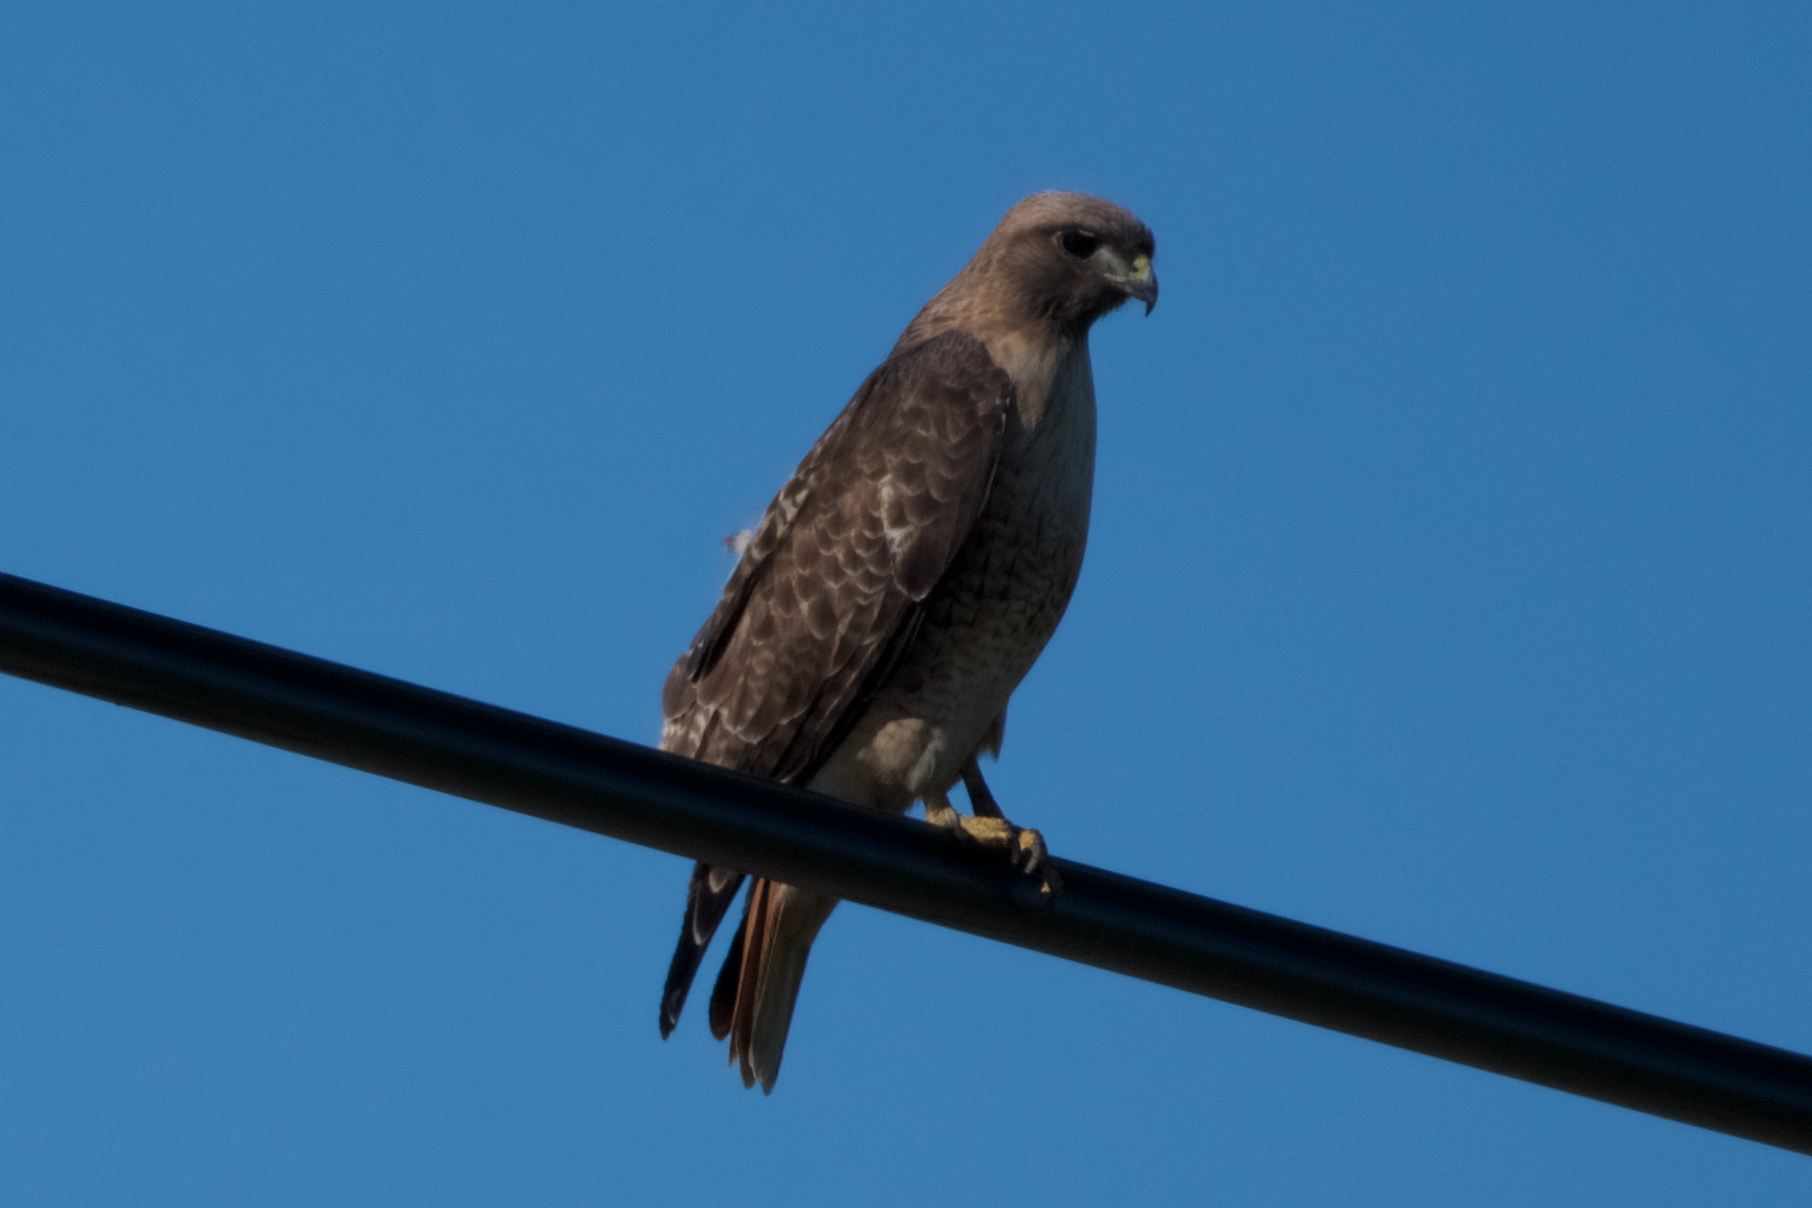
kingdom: Animalia
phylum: Chordata
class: Aves
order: Accipitriformes
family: Accipitridae
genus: Buteo
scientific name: Buteo jamaicensis
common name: Red-tailed hawk
